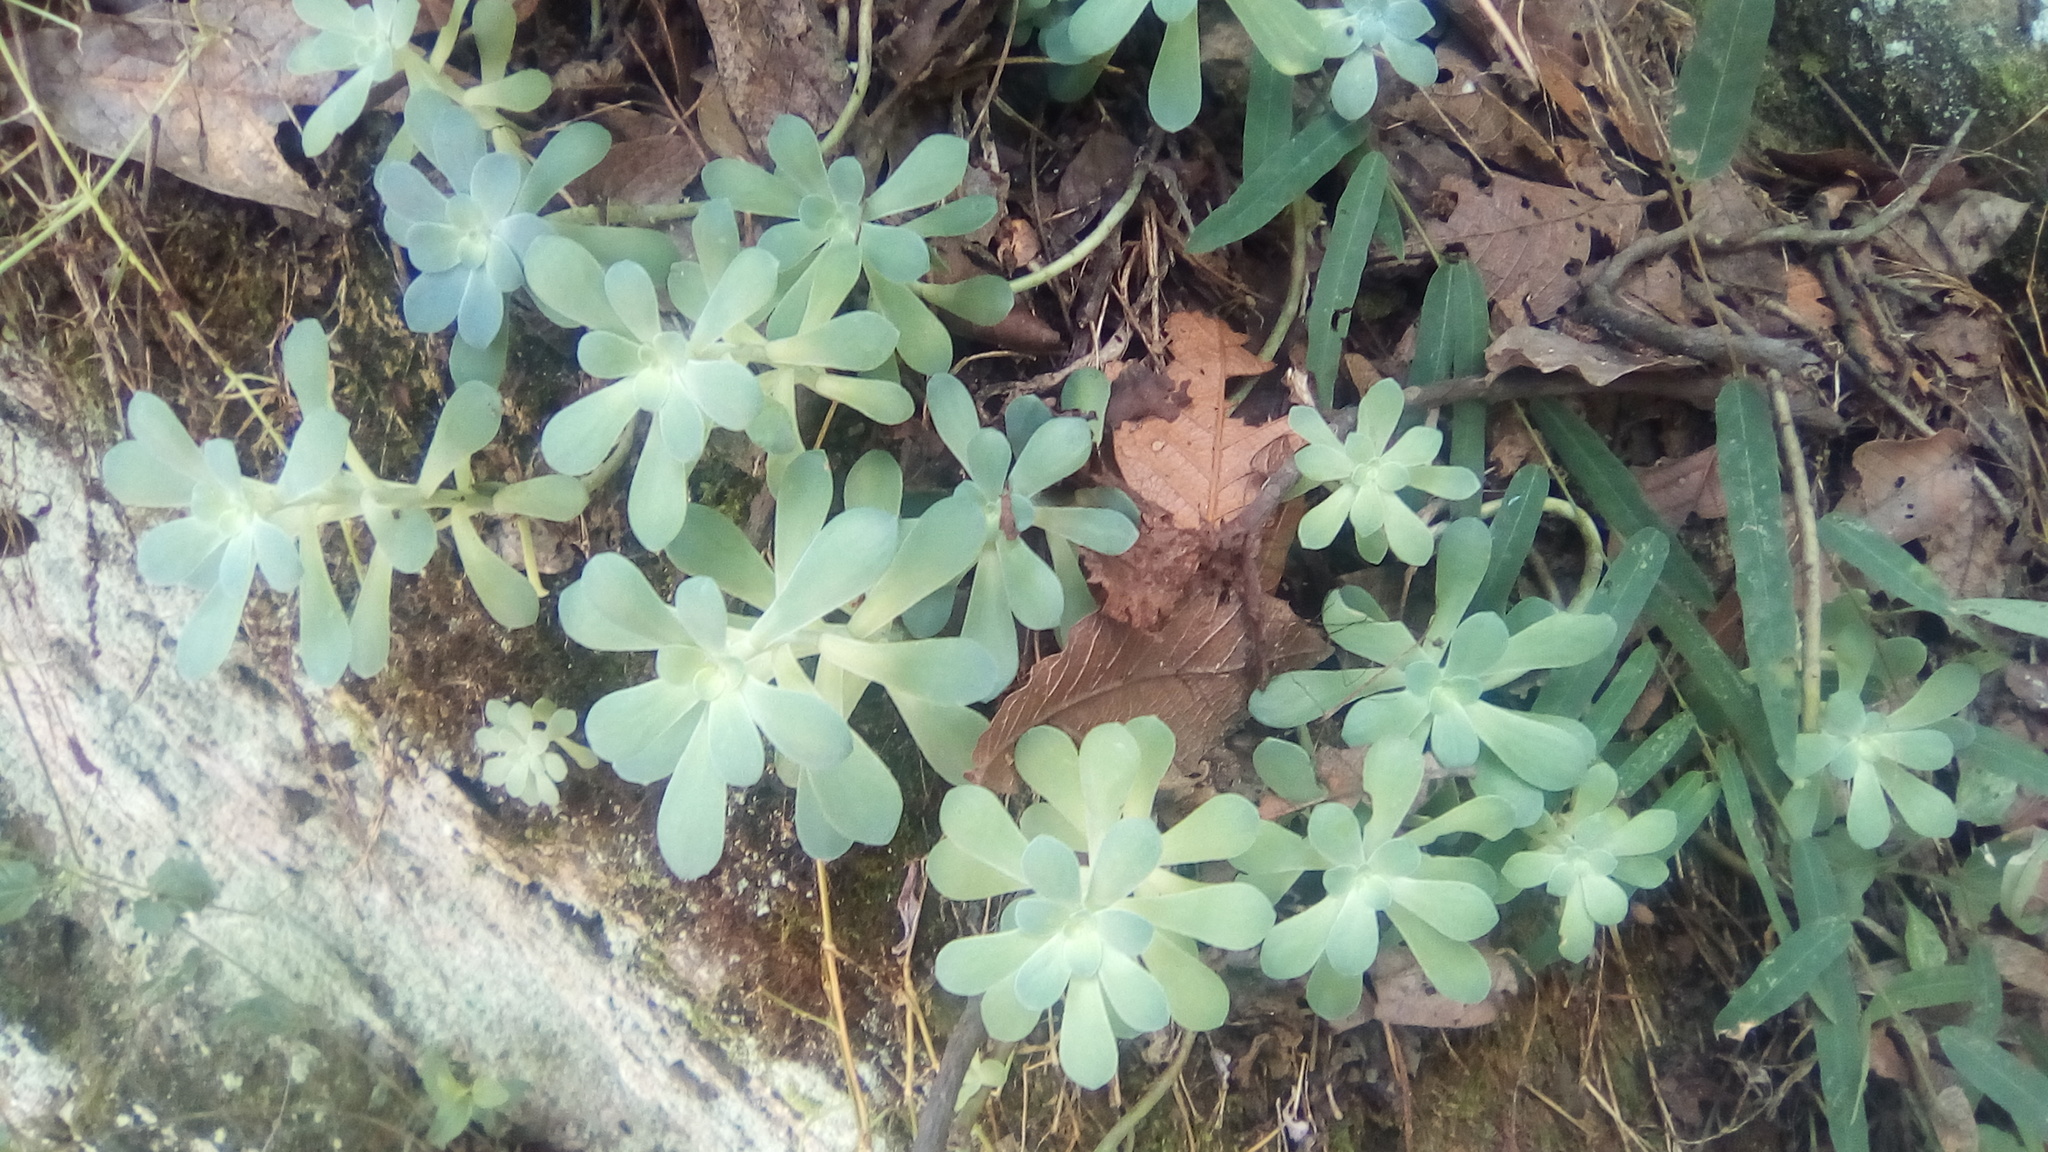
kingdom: Plantae
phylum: Tracheophyta
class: Magnoliopsida
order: Saxifragales
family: Crassulaceae
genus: Sedum
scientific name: Sedum palmeri
